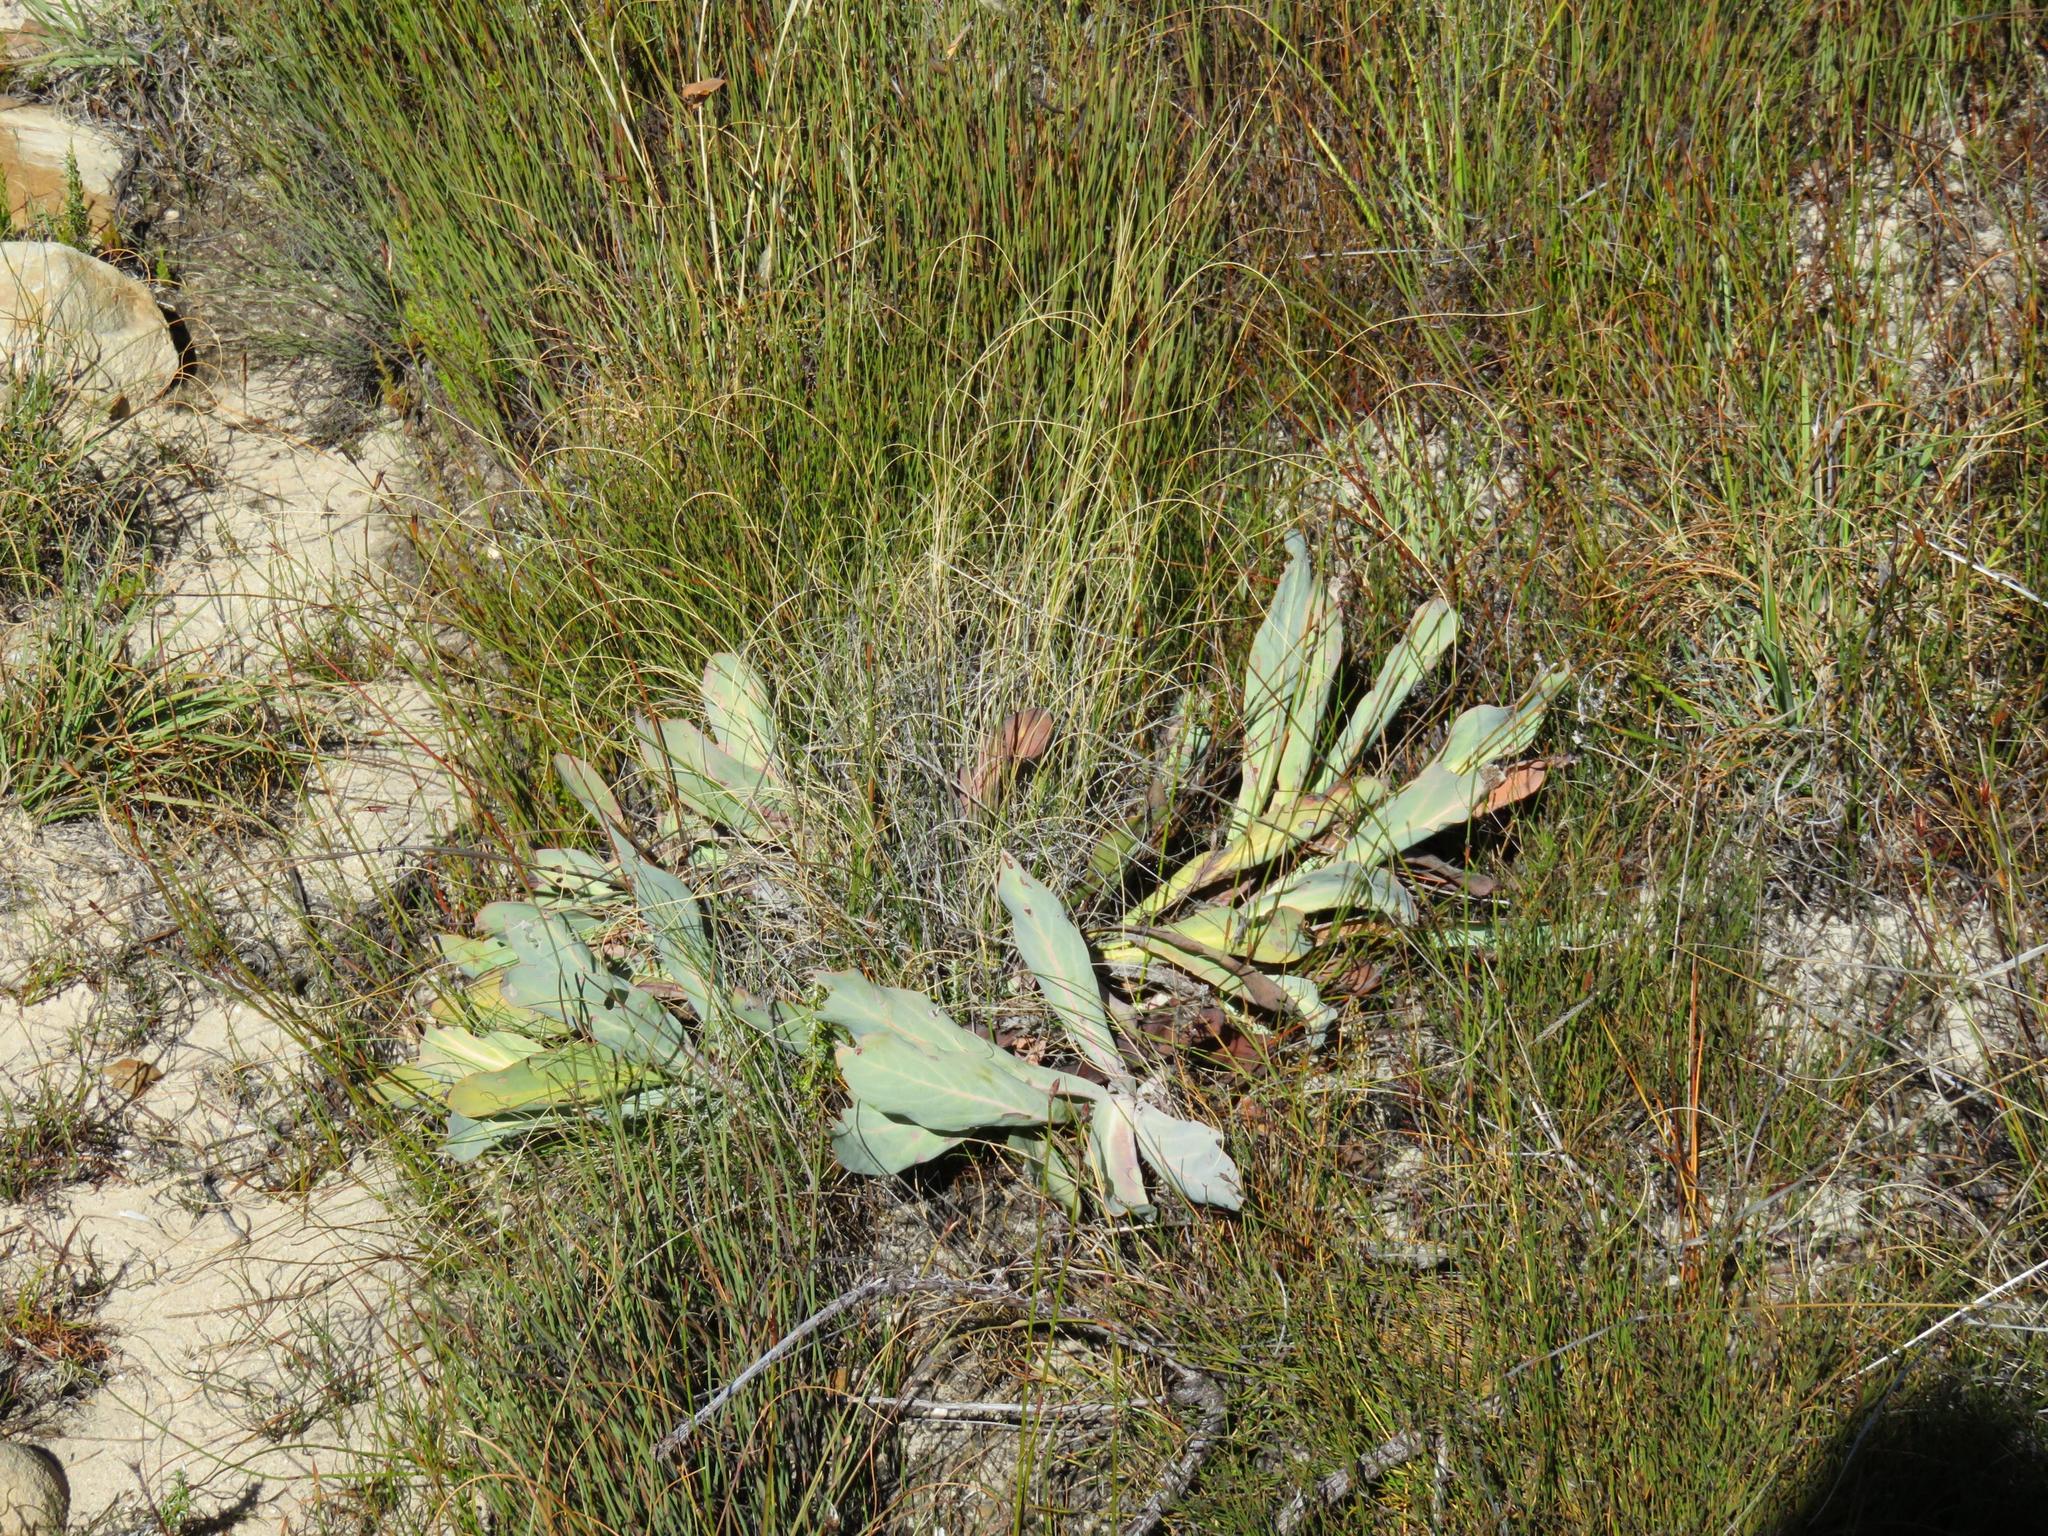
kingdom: Plantae
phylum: Tracheophyta
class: Magnoliopsida
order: Proteales
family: Proteaceae
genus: Protea
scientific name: Protea laevis
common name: Smooth-leaf sugarbush
